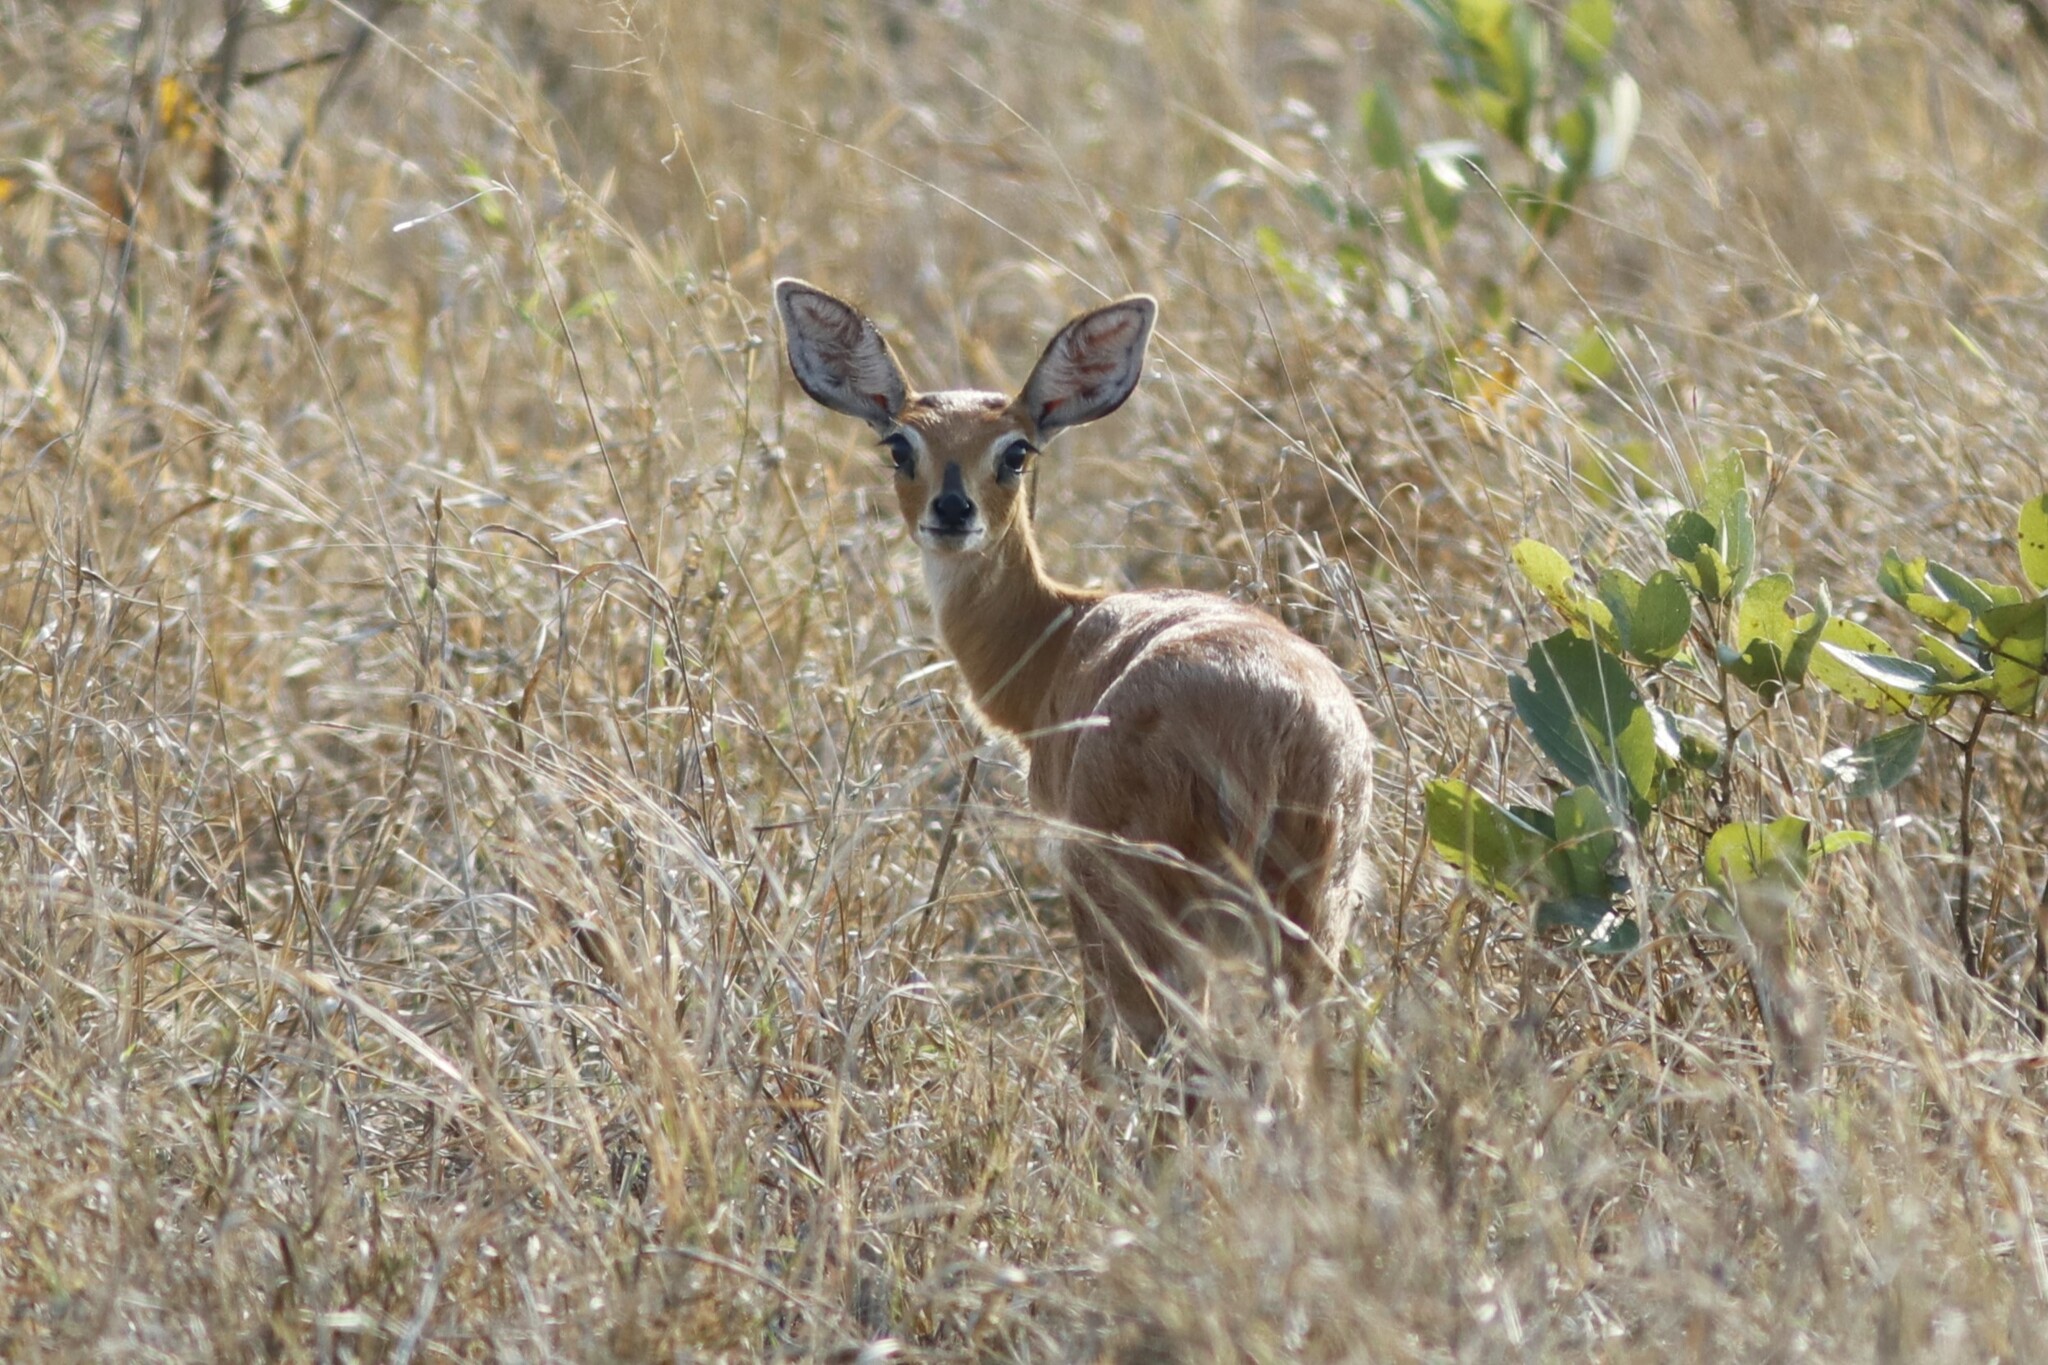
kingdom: Animalia
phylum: Chordata
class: Mammalia
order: Artiodactyla
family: Bovidae
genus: Raphicerus
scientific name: Raphicerus campestris
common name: Steenbok
